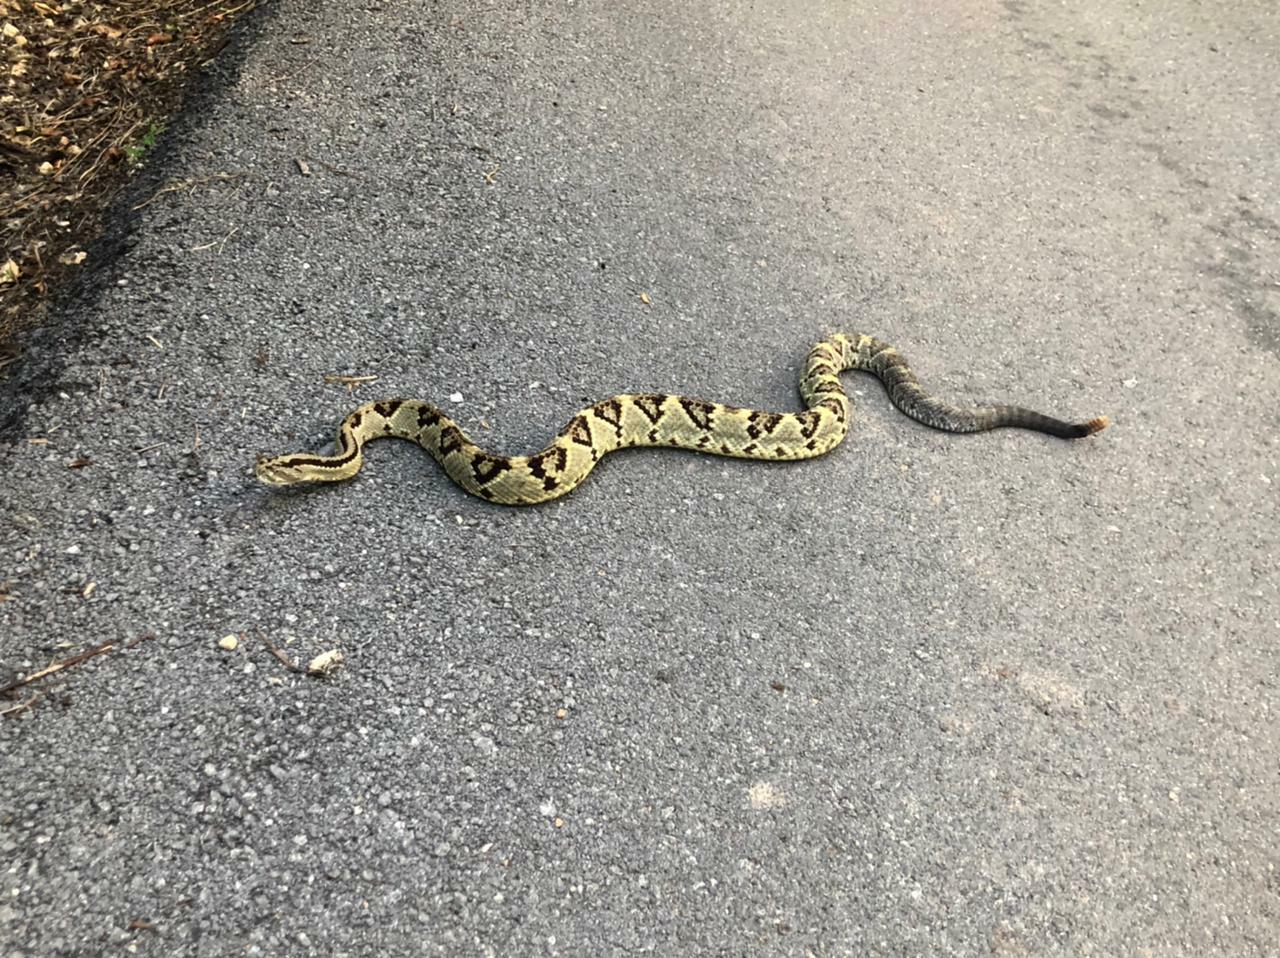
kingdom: Animalia
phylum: Chordata
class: Squamata
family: Viperidae
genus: Crotalus
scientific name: Crotalus tzabcan
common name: Yucatan neotropical rattlesnake
